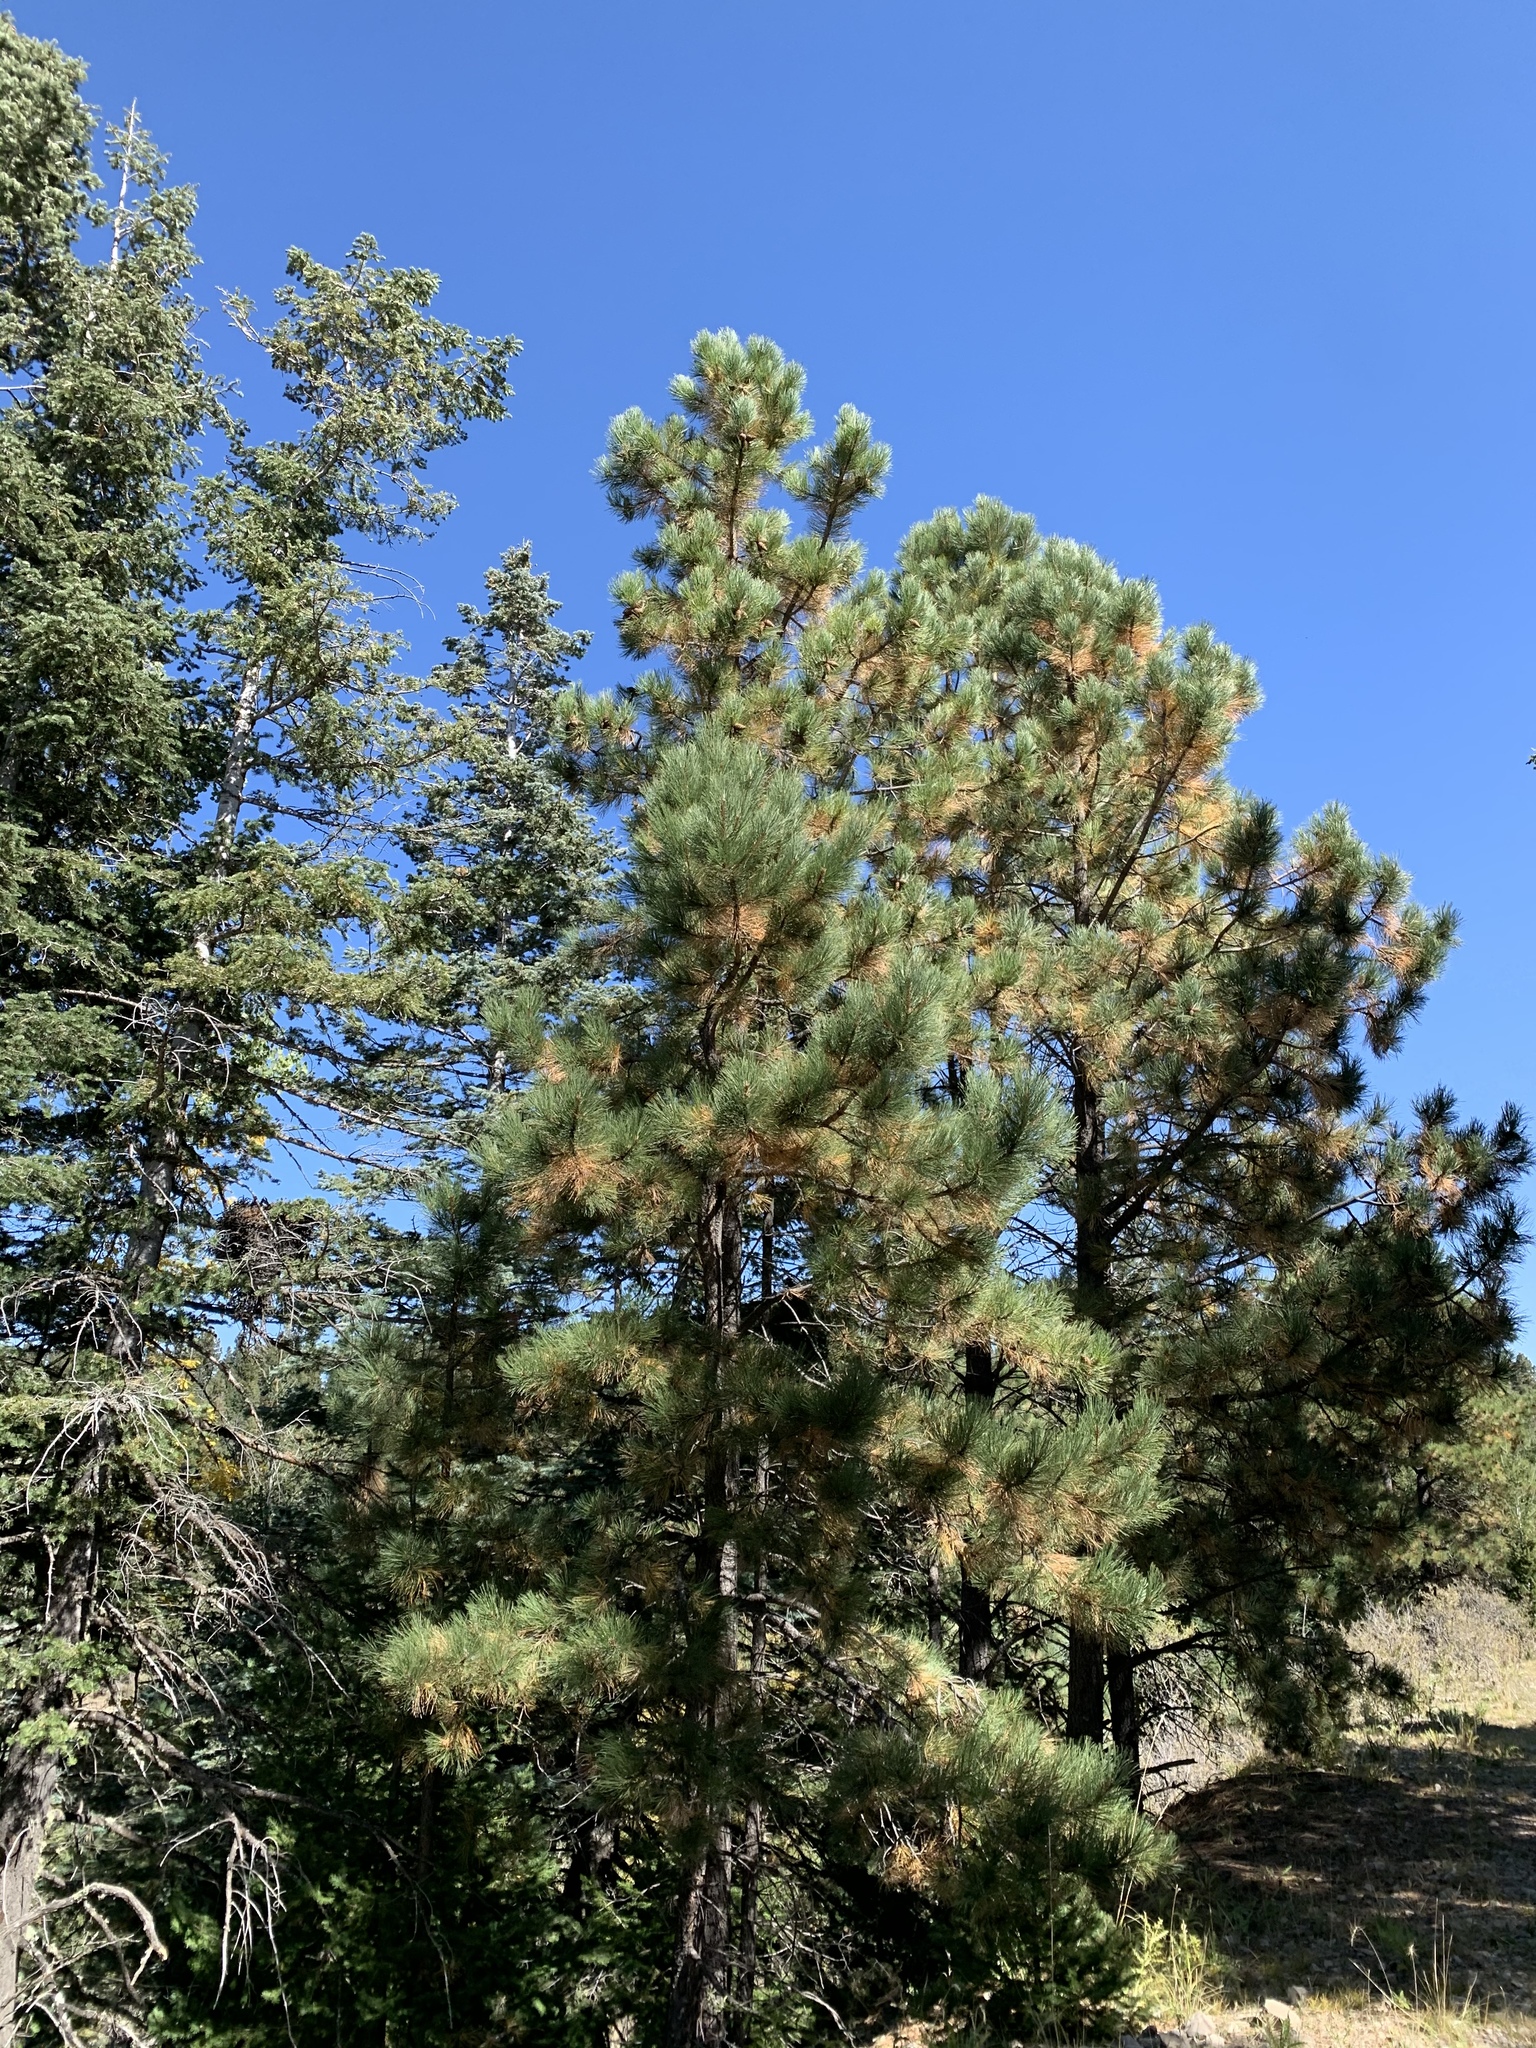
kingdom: Plantae
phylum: Tracheophyta
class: Pinopsida
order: Pinales
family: Pinaceae
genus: Pinus
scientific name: Pinus ponderosa
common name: Western yellow-pine
